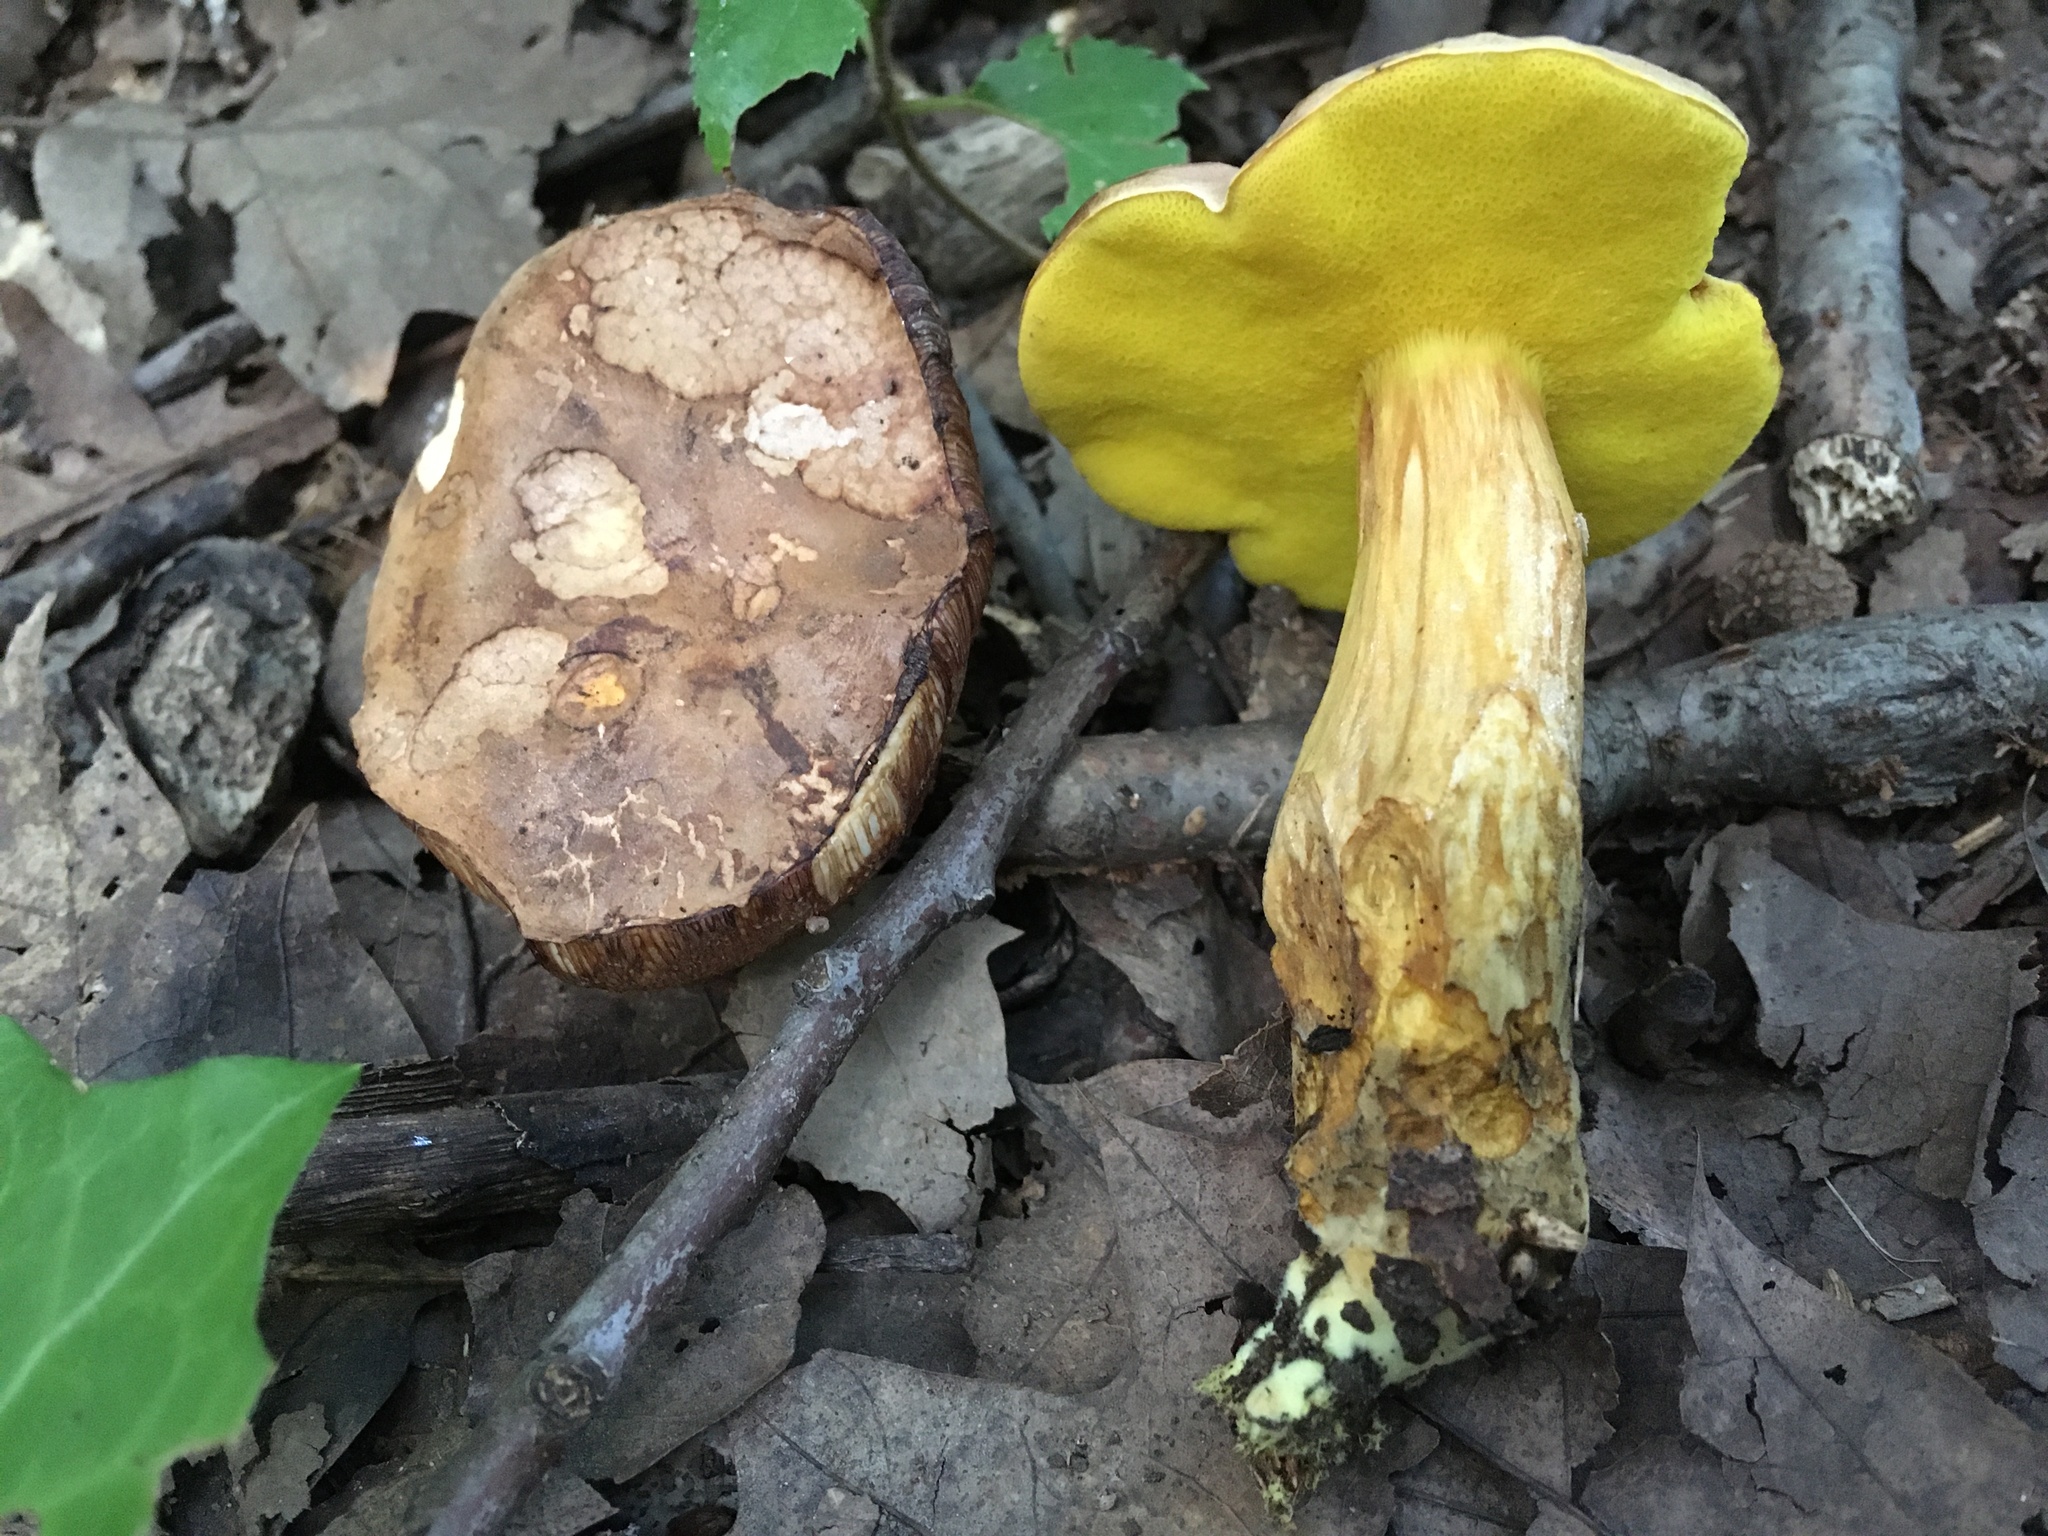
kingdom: Fungi
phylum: Basidiomycota
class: Agaricomycetes
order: Boletales
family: Boletaceae
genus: Aureoboletus
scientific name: Aureoboletus innixus
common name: Clustered brown bolete
